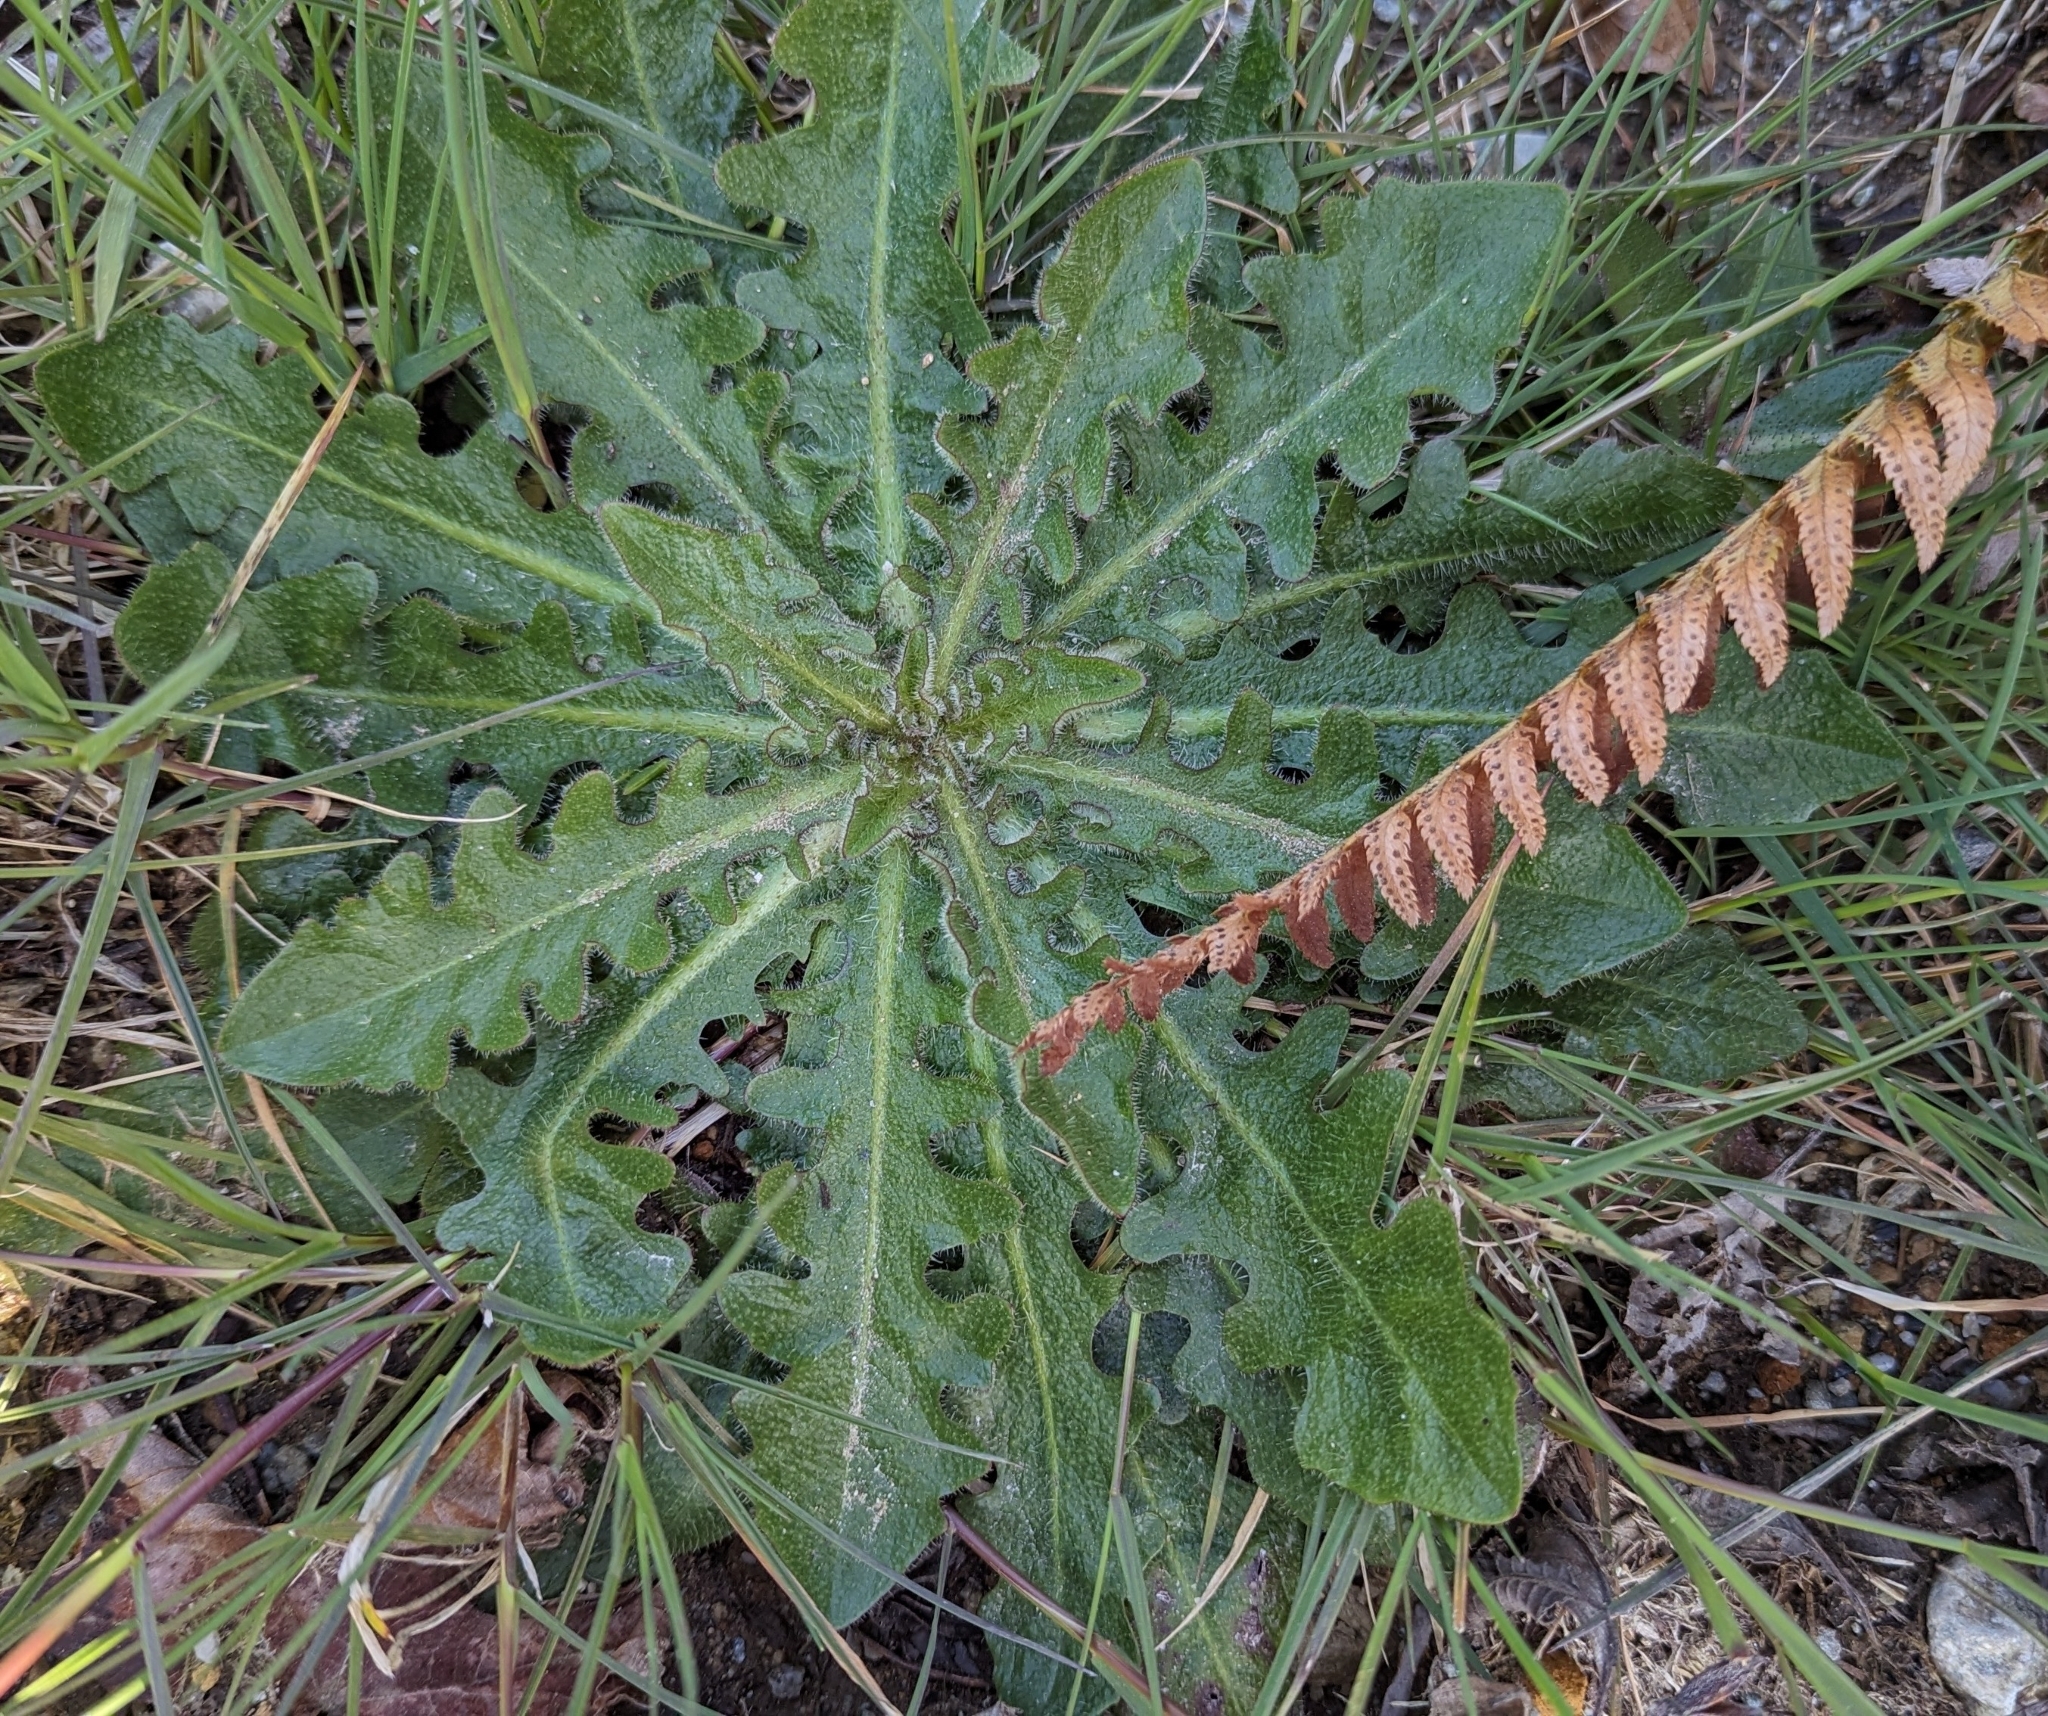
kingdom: Plantae
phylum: Tracheophyta
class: Magnoliopsida
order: Asterales
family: Asteraceae
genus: Hypochaeris
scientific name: Hypochaeris radicata
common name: Flatweed
